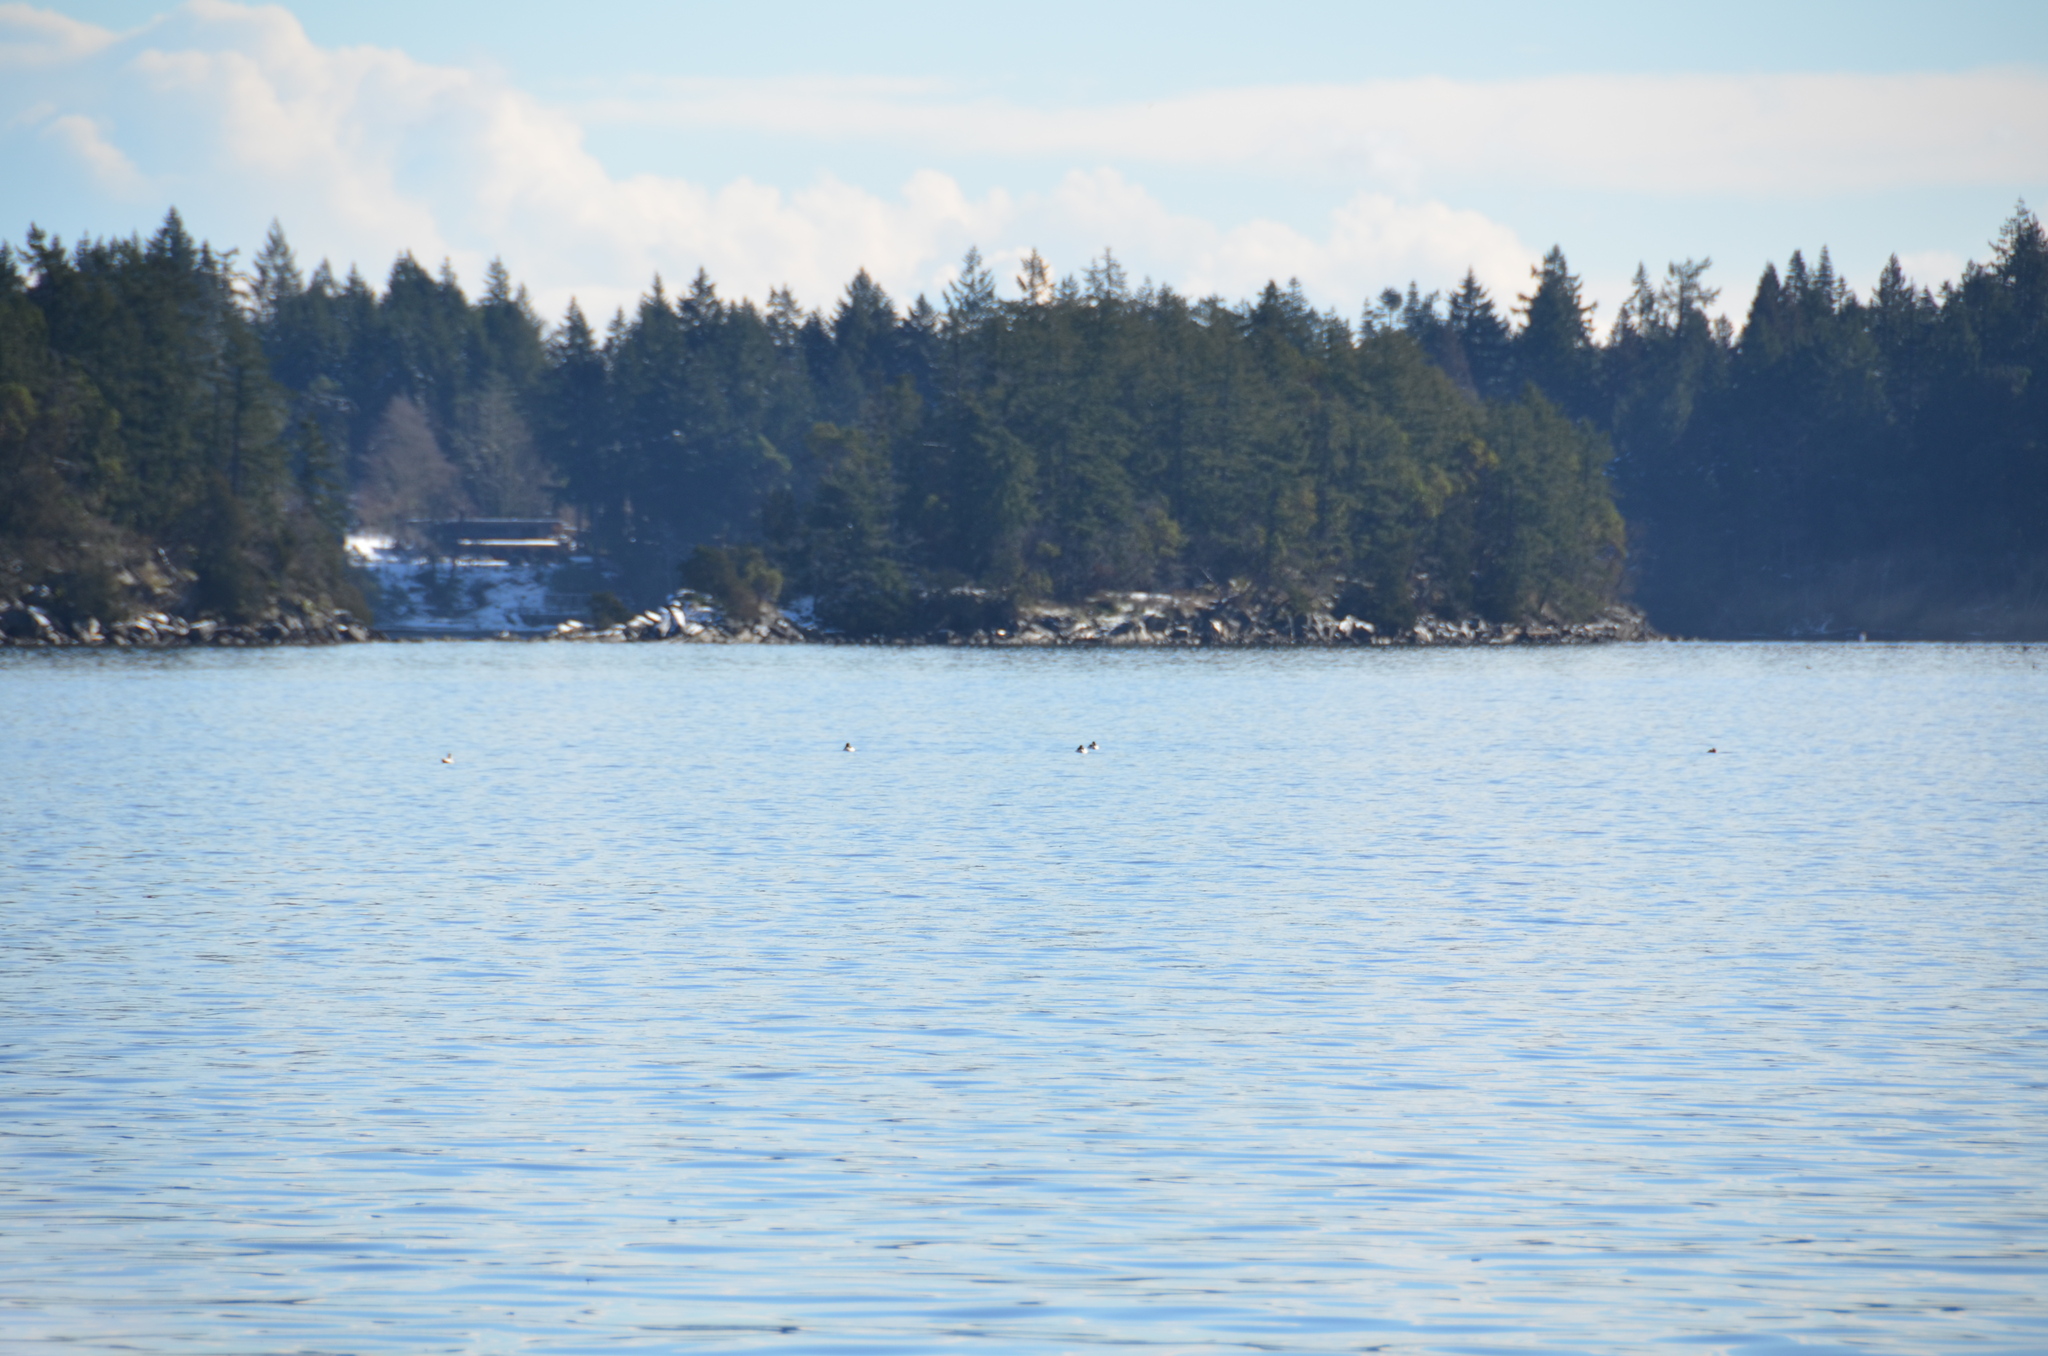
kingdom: Animalia
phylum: Chordata
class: Aves
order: Anseriformes
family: Anatidae
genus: Mergus
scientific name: Mergus merganser
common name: Common merganser
